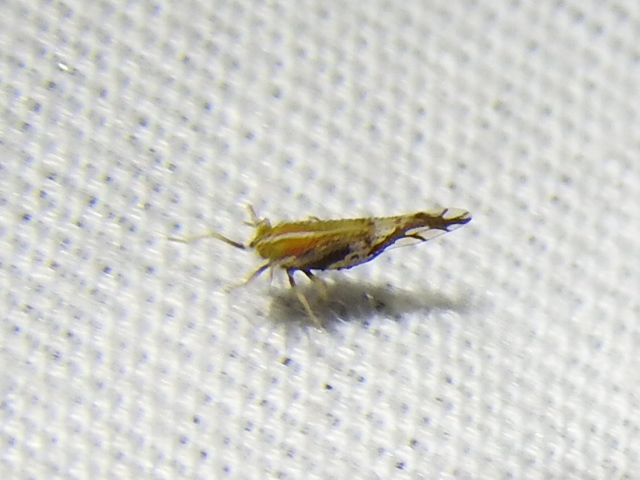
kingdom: Animalia
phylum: Arthropoda
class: Insecta
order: Hemiptera
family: Delphacidae
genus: Liburniella
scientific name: Liburniella ornata
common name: Ornate planthopper
